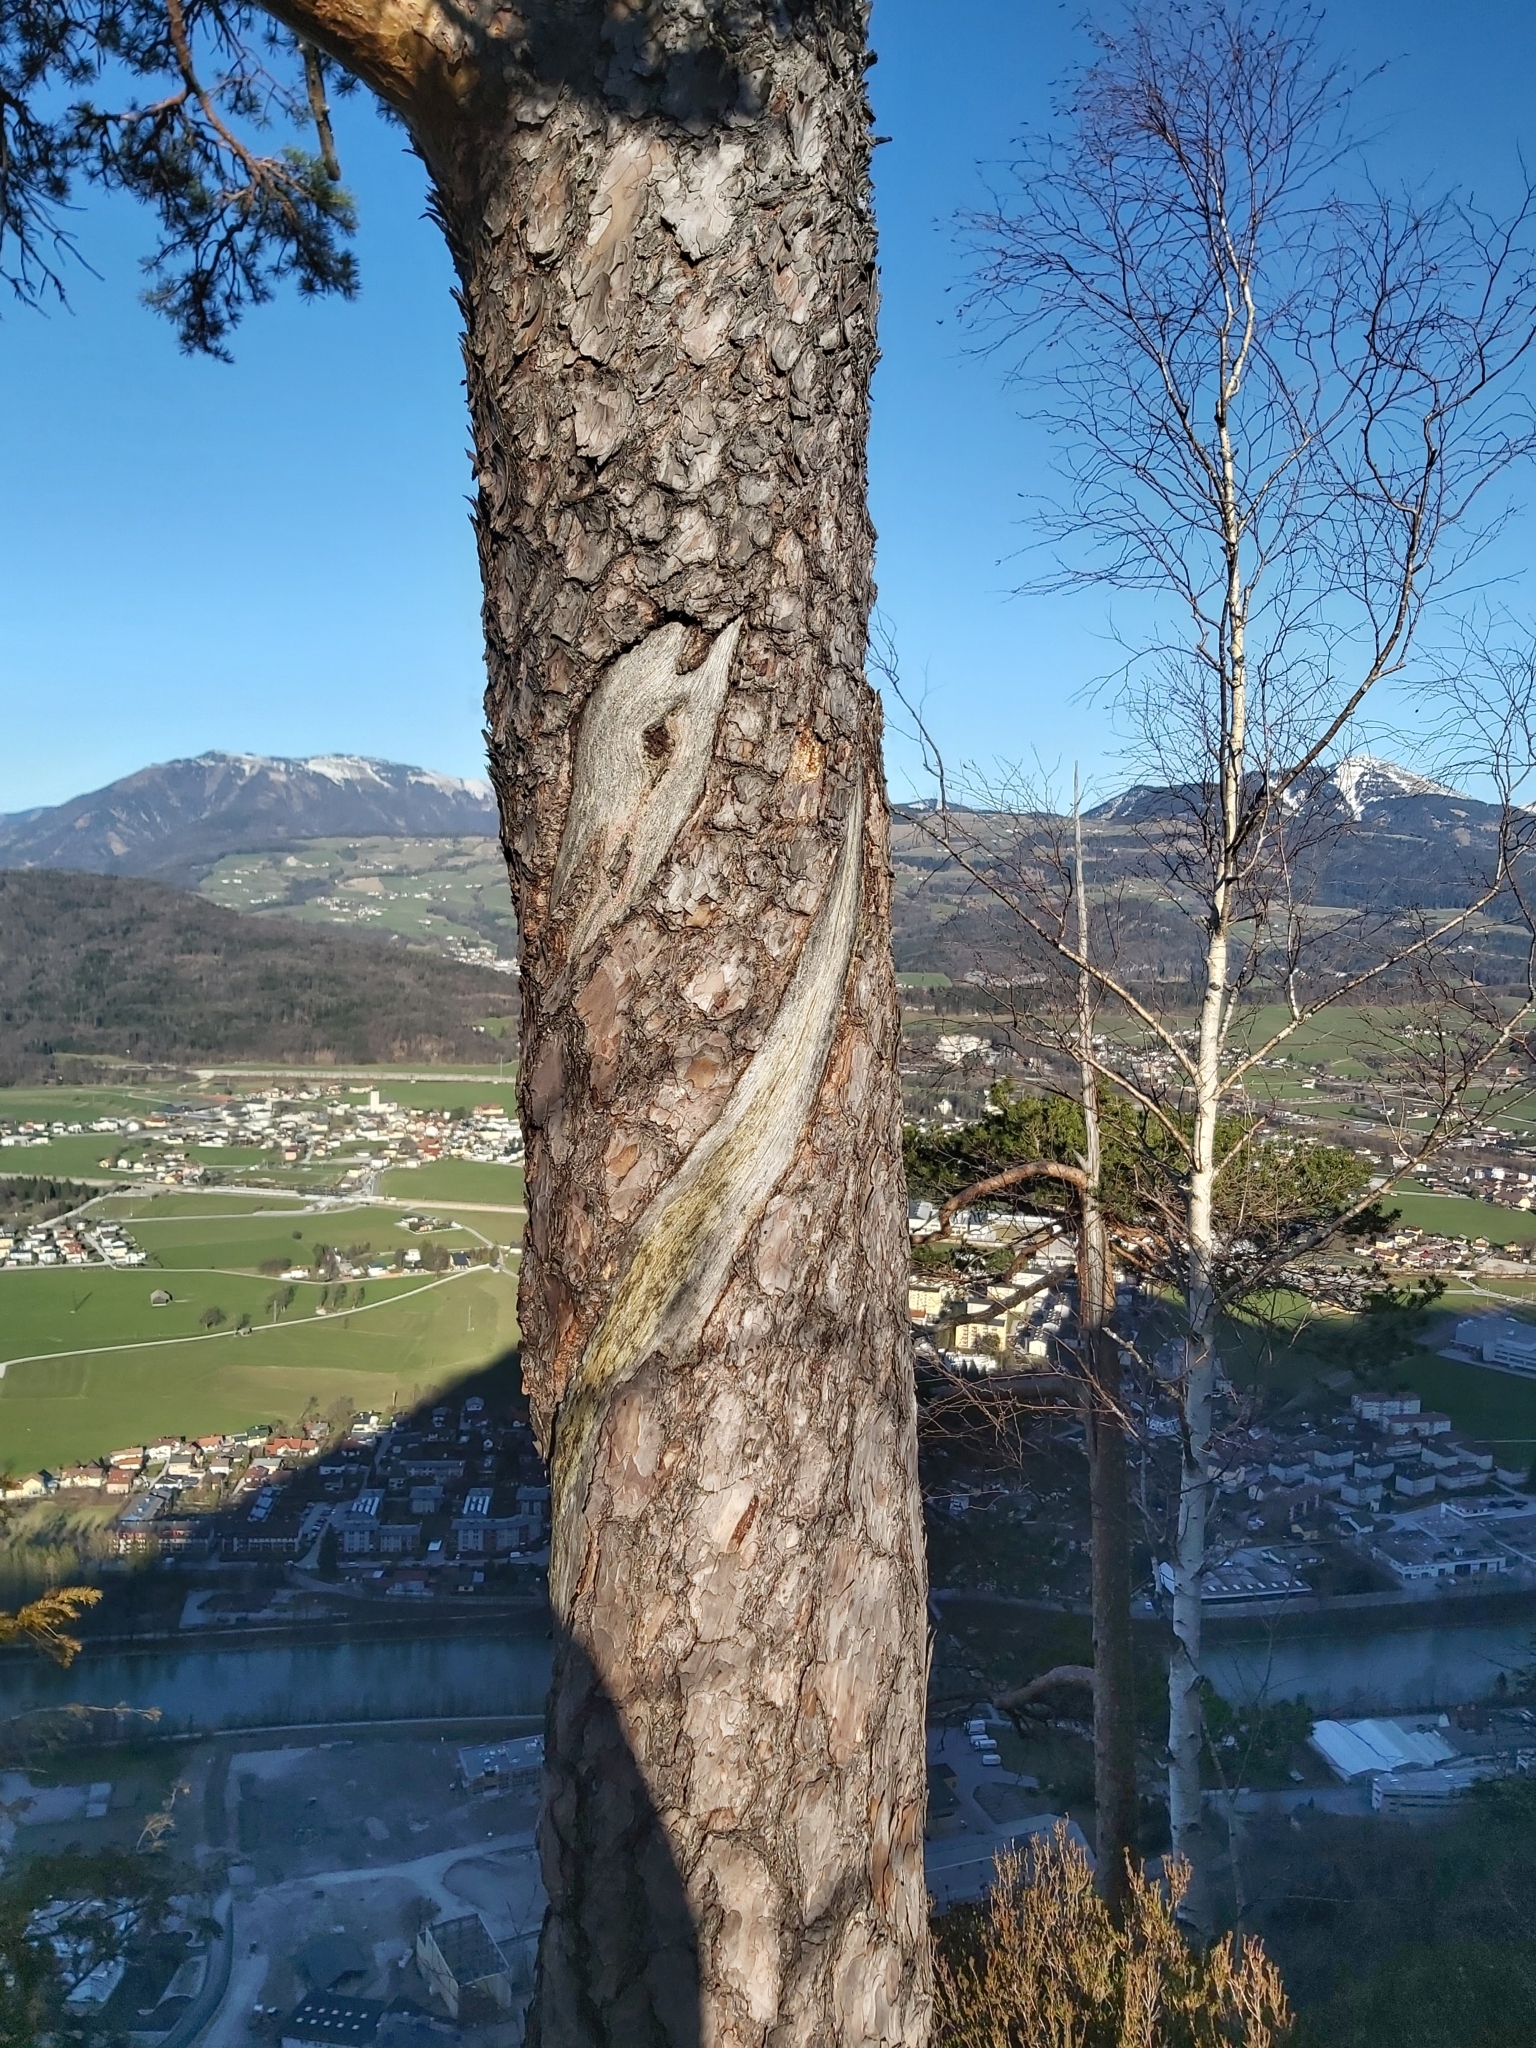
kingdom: Plantae
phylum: Tracheophyta
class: Pinopsida
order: Pinales
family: Pinaceae
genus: Pinus
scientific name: Pinus sylvestris
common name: Scots pine
